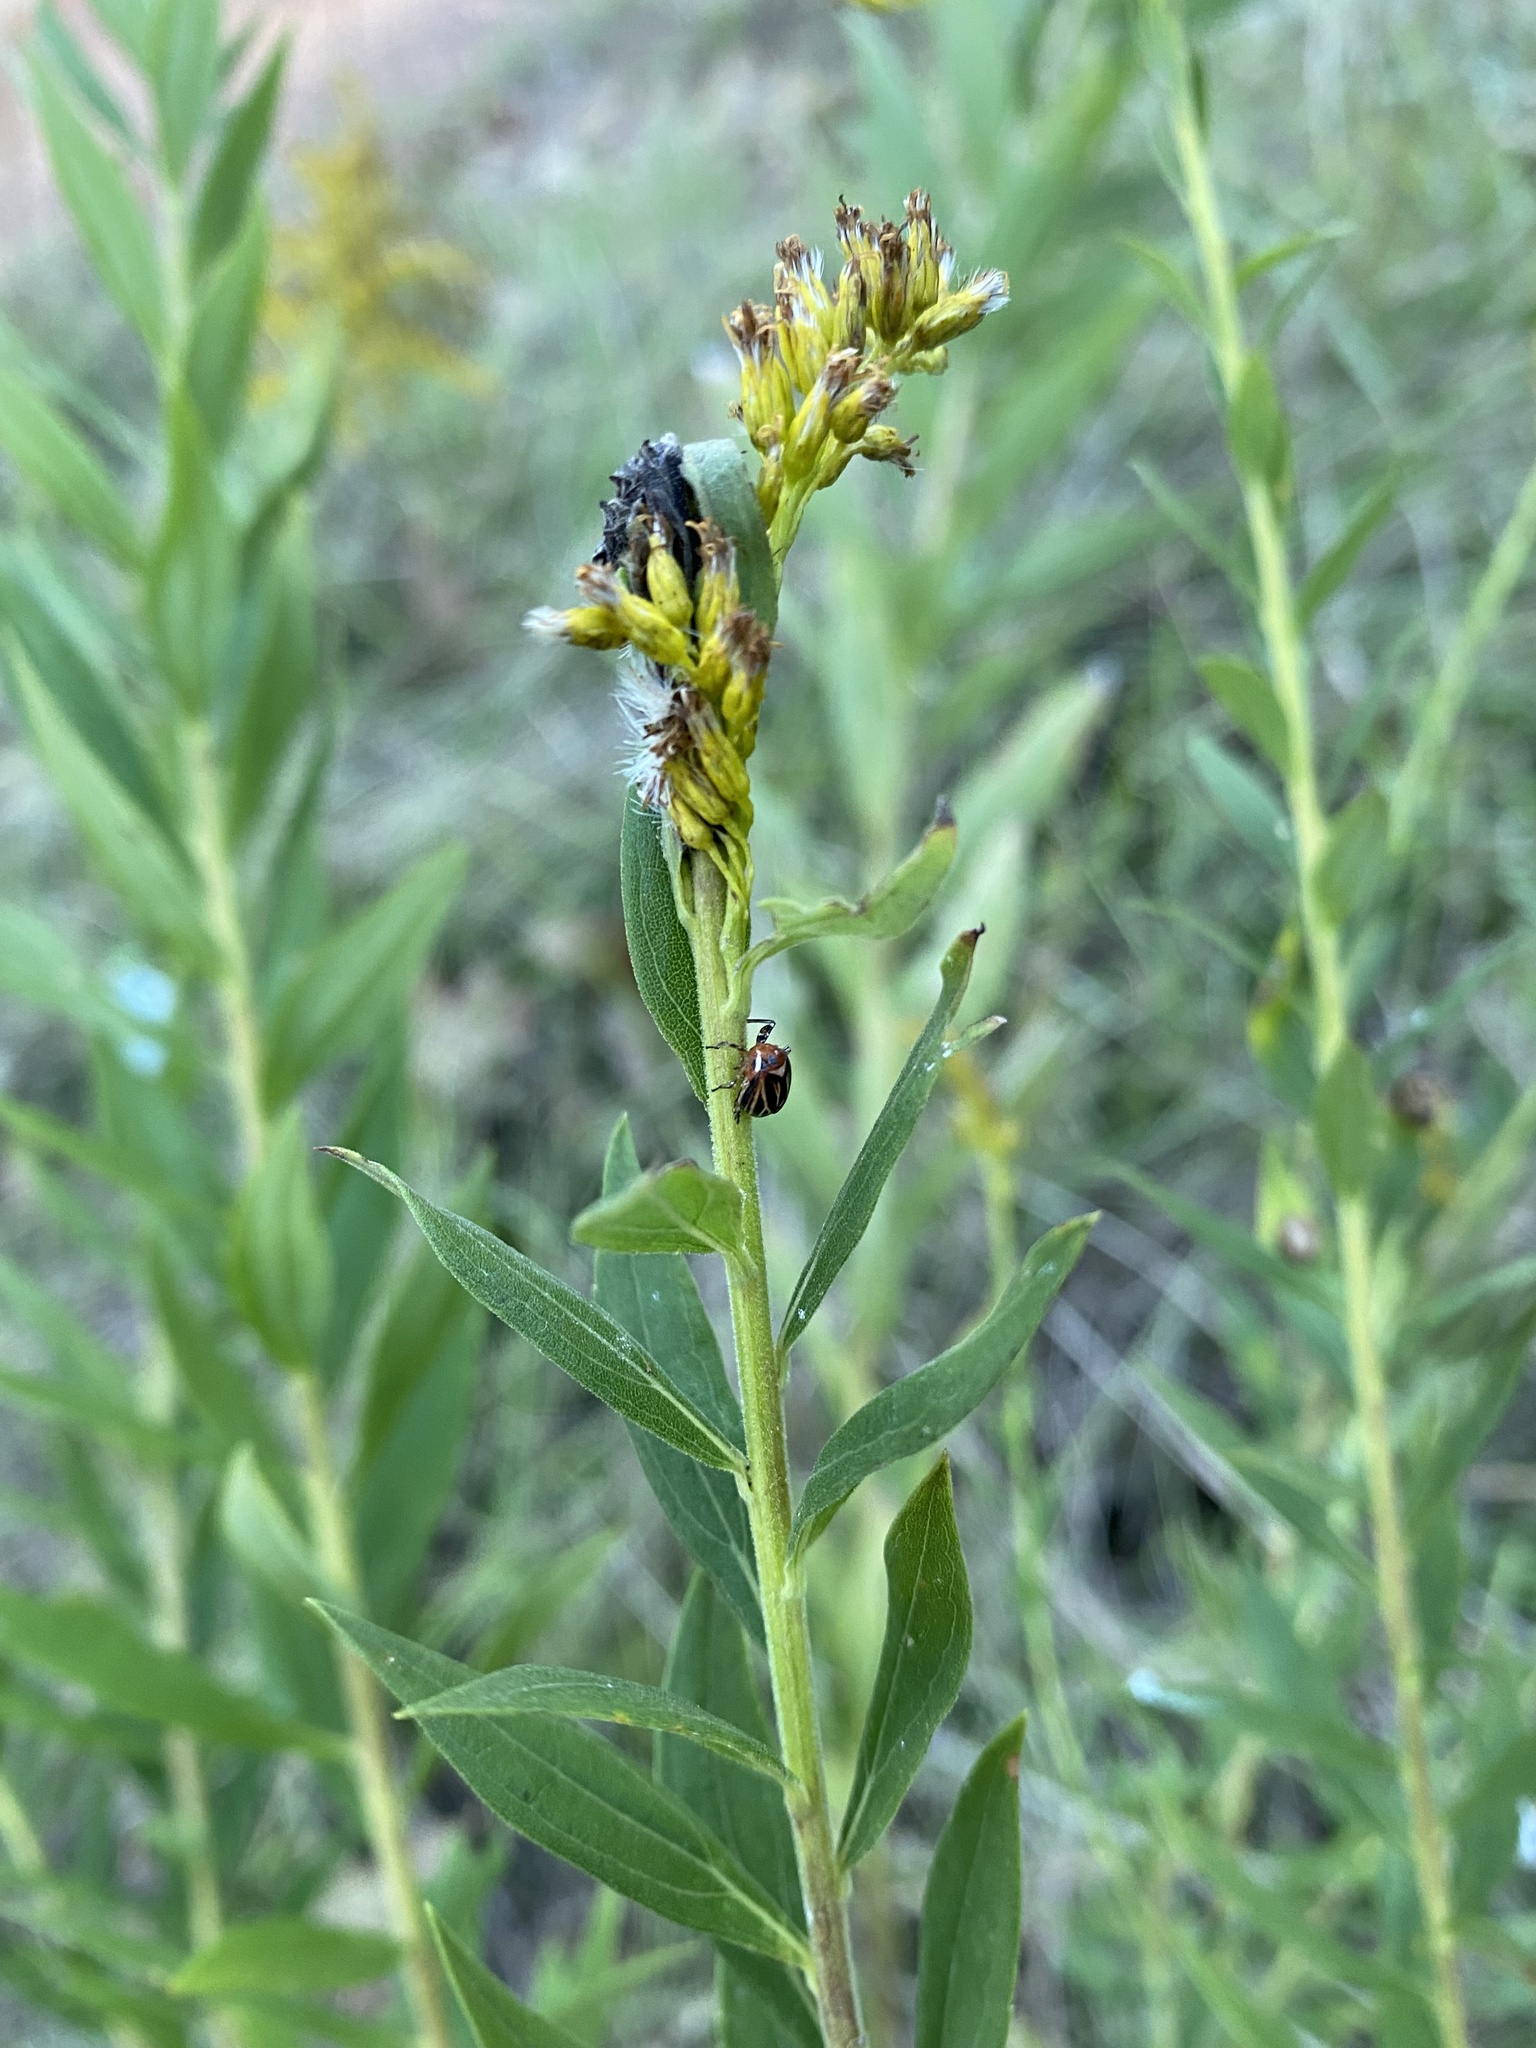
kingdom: Animalia
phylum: Arthropoda
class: Insecta
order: Hemiptera
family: Achilidae
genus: Isodaemon
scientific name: Isodaemon orontes
